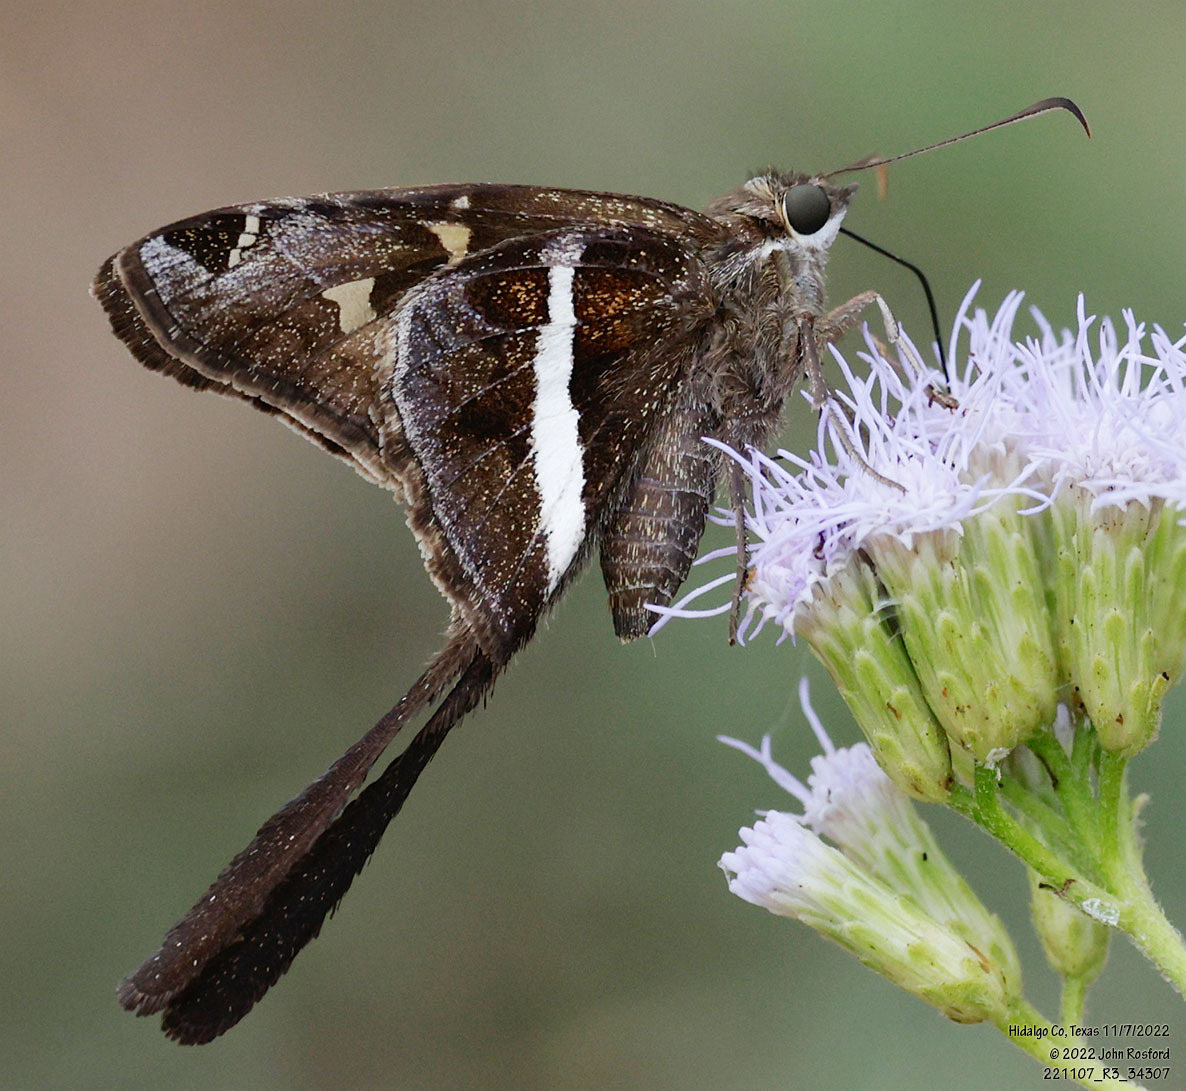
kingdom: Animalia
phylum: Arthropoda
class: Insecta
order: Lepidoptera
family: Hesperiidae
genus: Chioides
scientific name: Chioides catillus
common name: Silverbanded skipper
